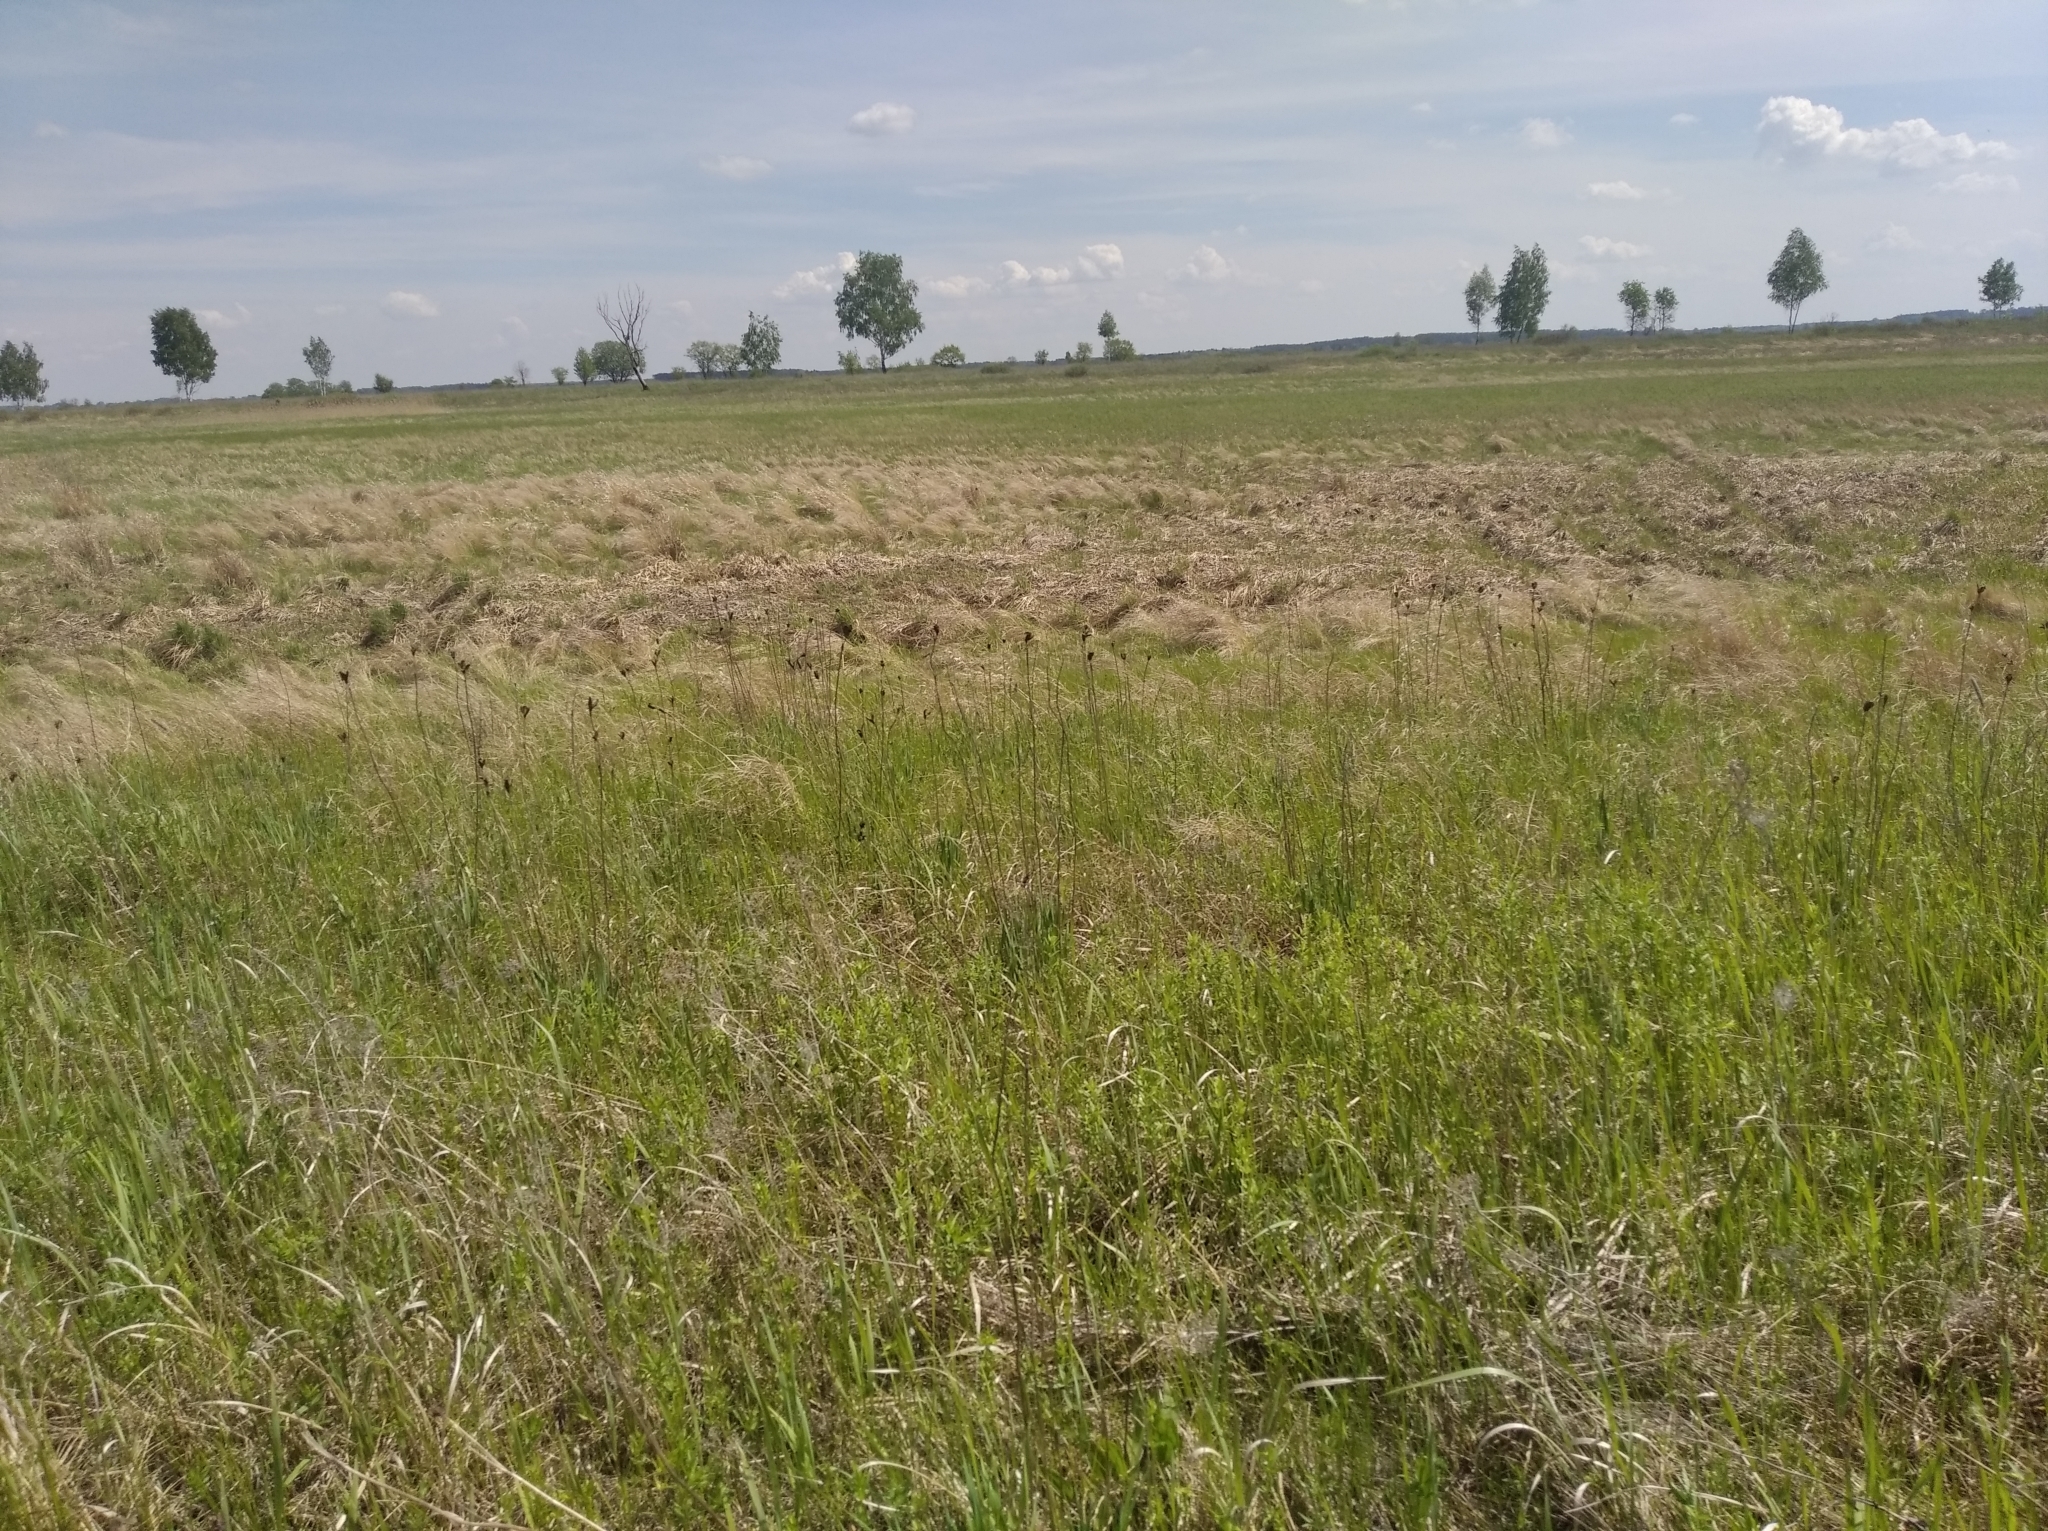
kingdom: Plantae
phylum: Tracheophyta
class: Liliopsida
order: Asparagales
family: Iridaceae
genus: Iris
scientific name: Iris sibirica
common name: Siberian iris
